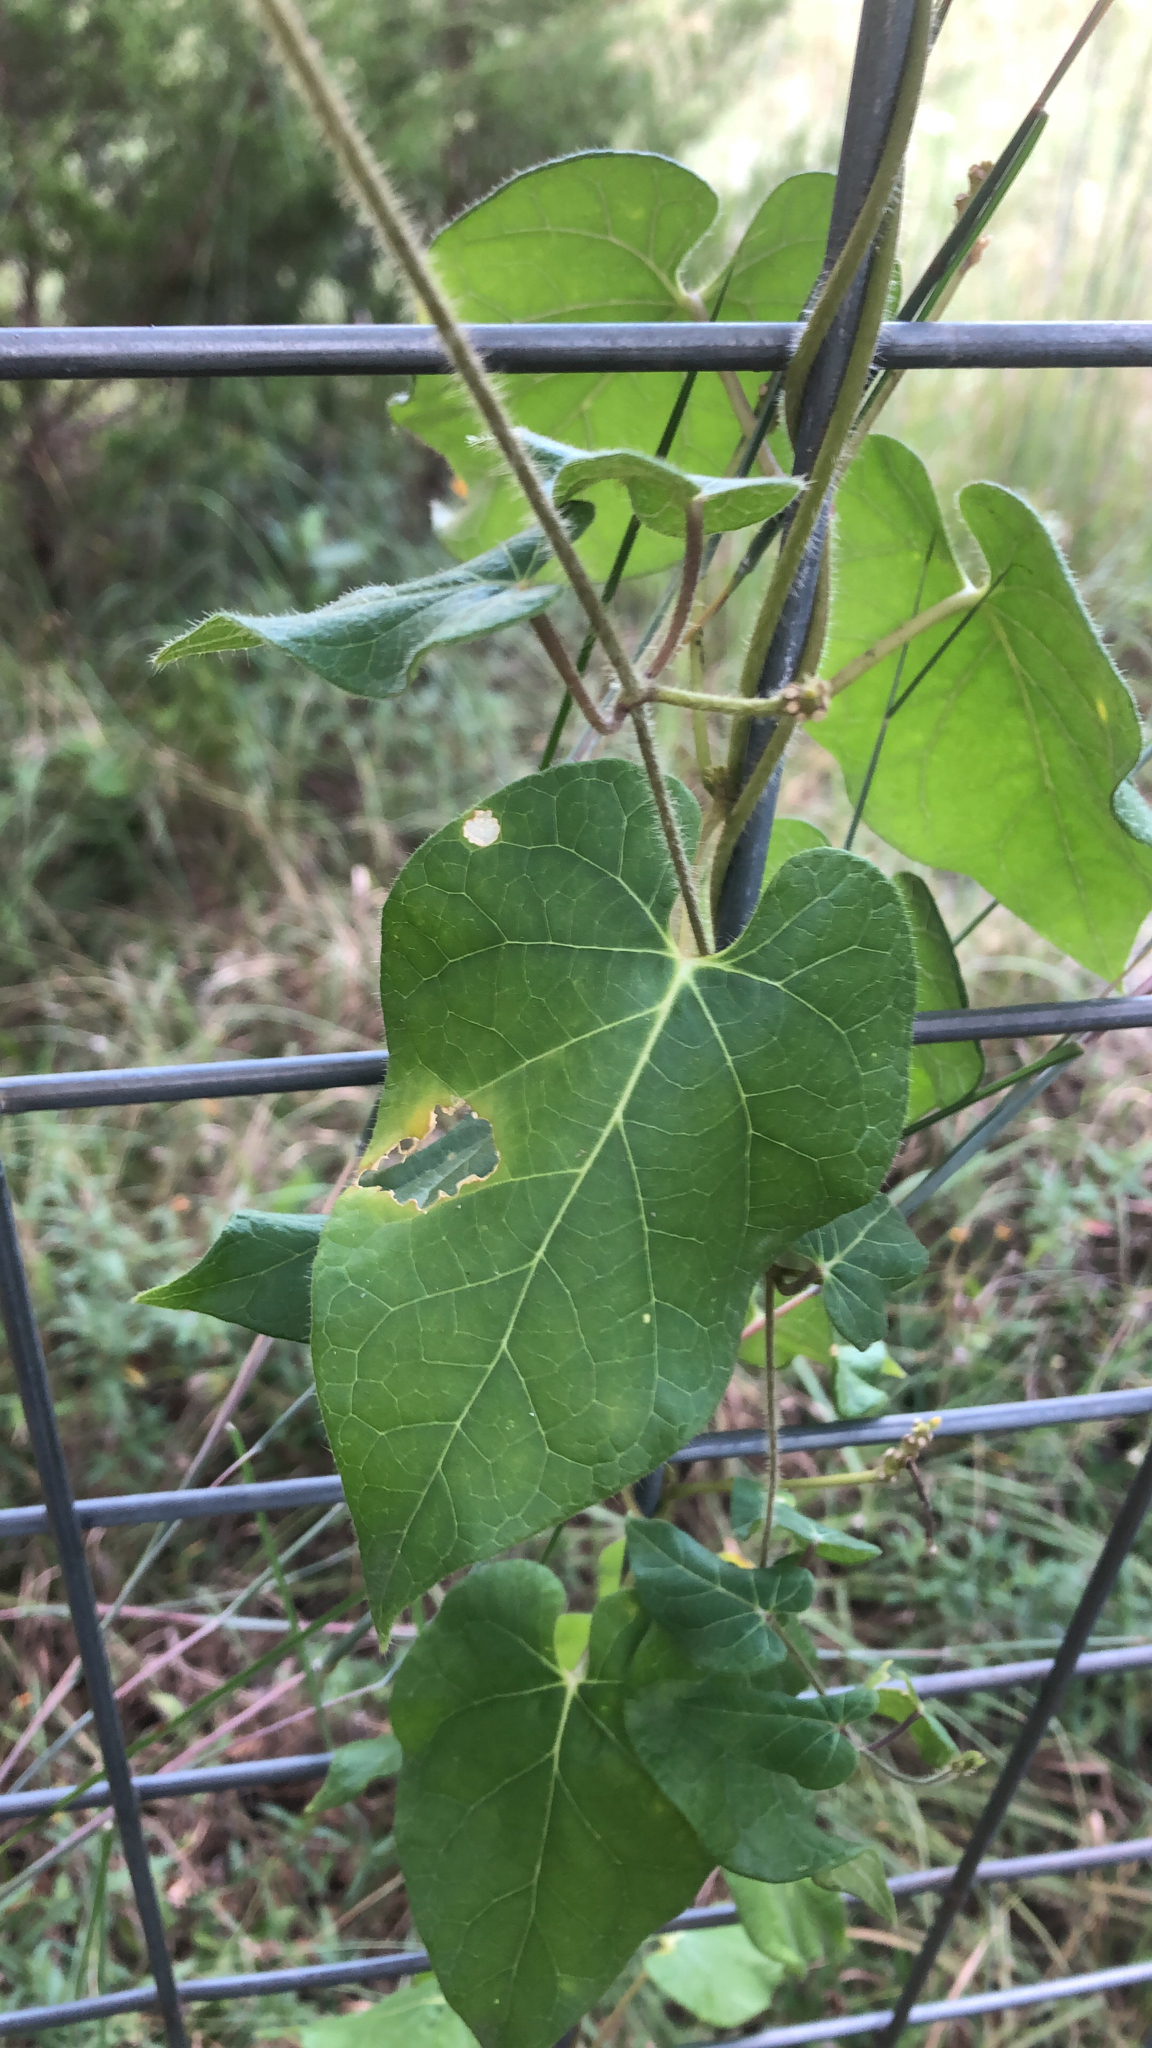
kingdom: Plantae
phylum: Tracheophyta
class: Magnoliopsida
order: Gentianales
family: Apocynaceae
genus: Dictyanthus
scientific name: Dictyanthus reticulatus
